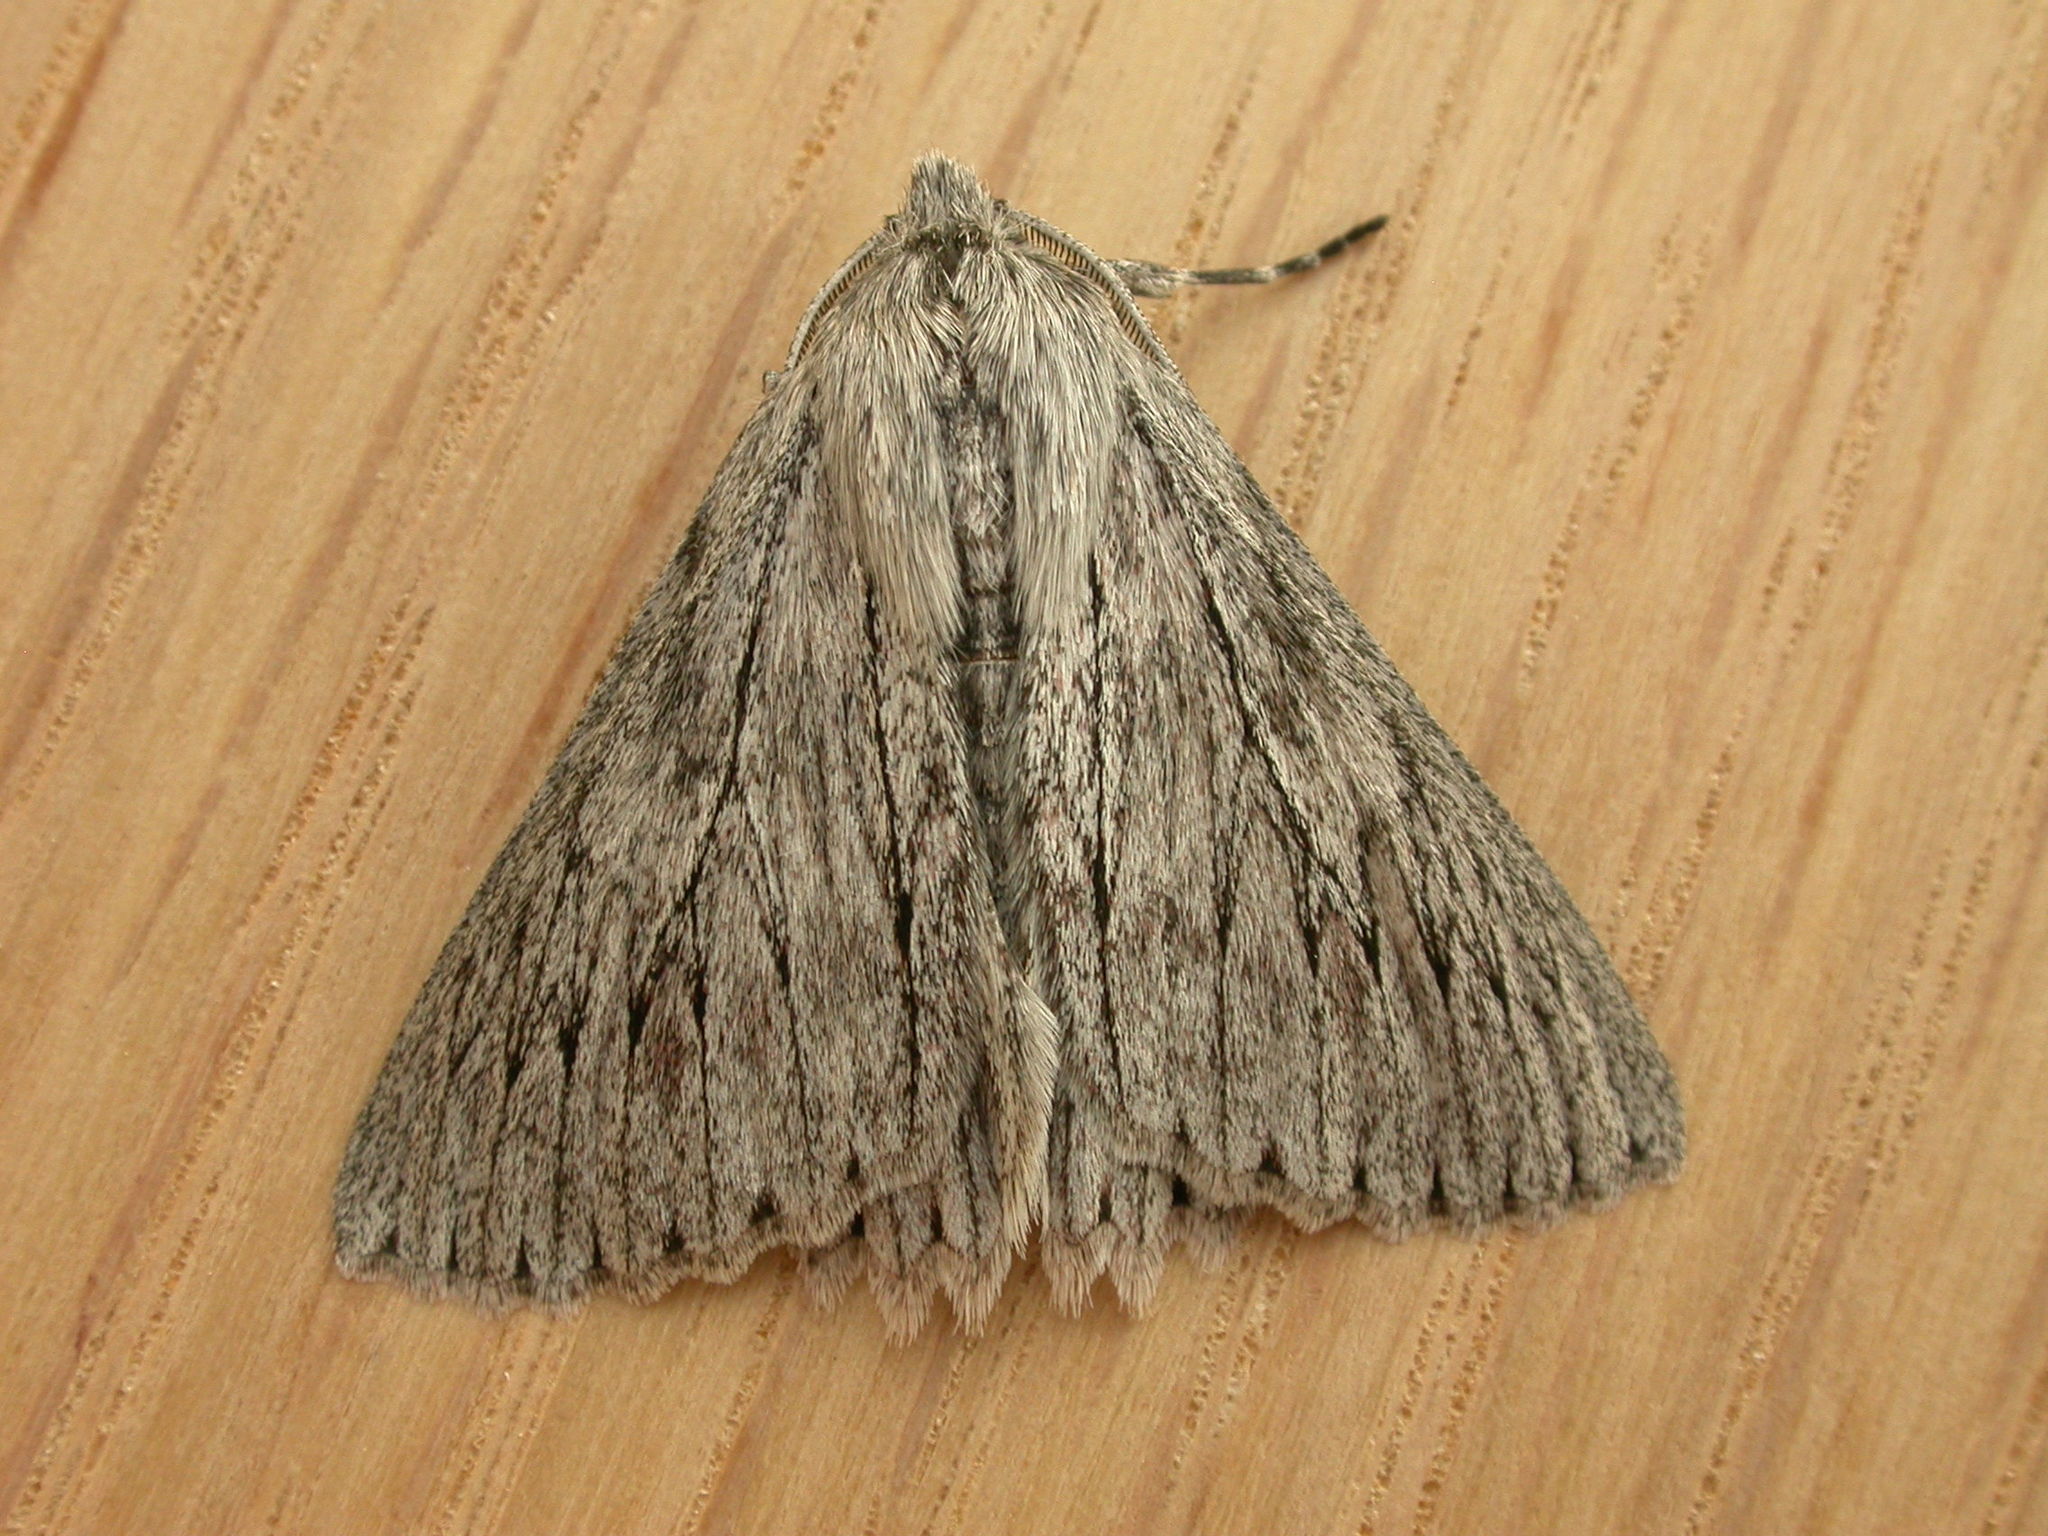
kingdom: Animalia
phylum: Arthropoda
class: Insecta
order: Lepidoptera
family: Geometridae
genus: Cyneoterpna
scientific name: Cyneoterpna wilsoni
